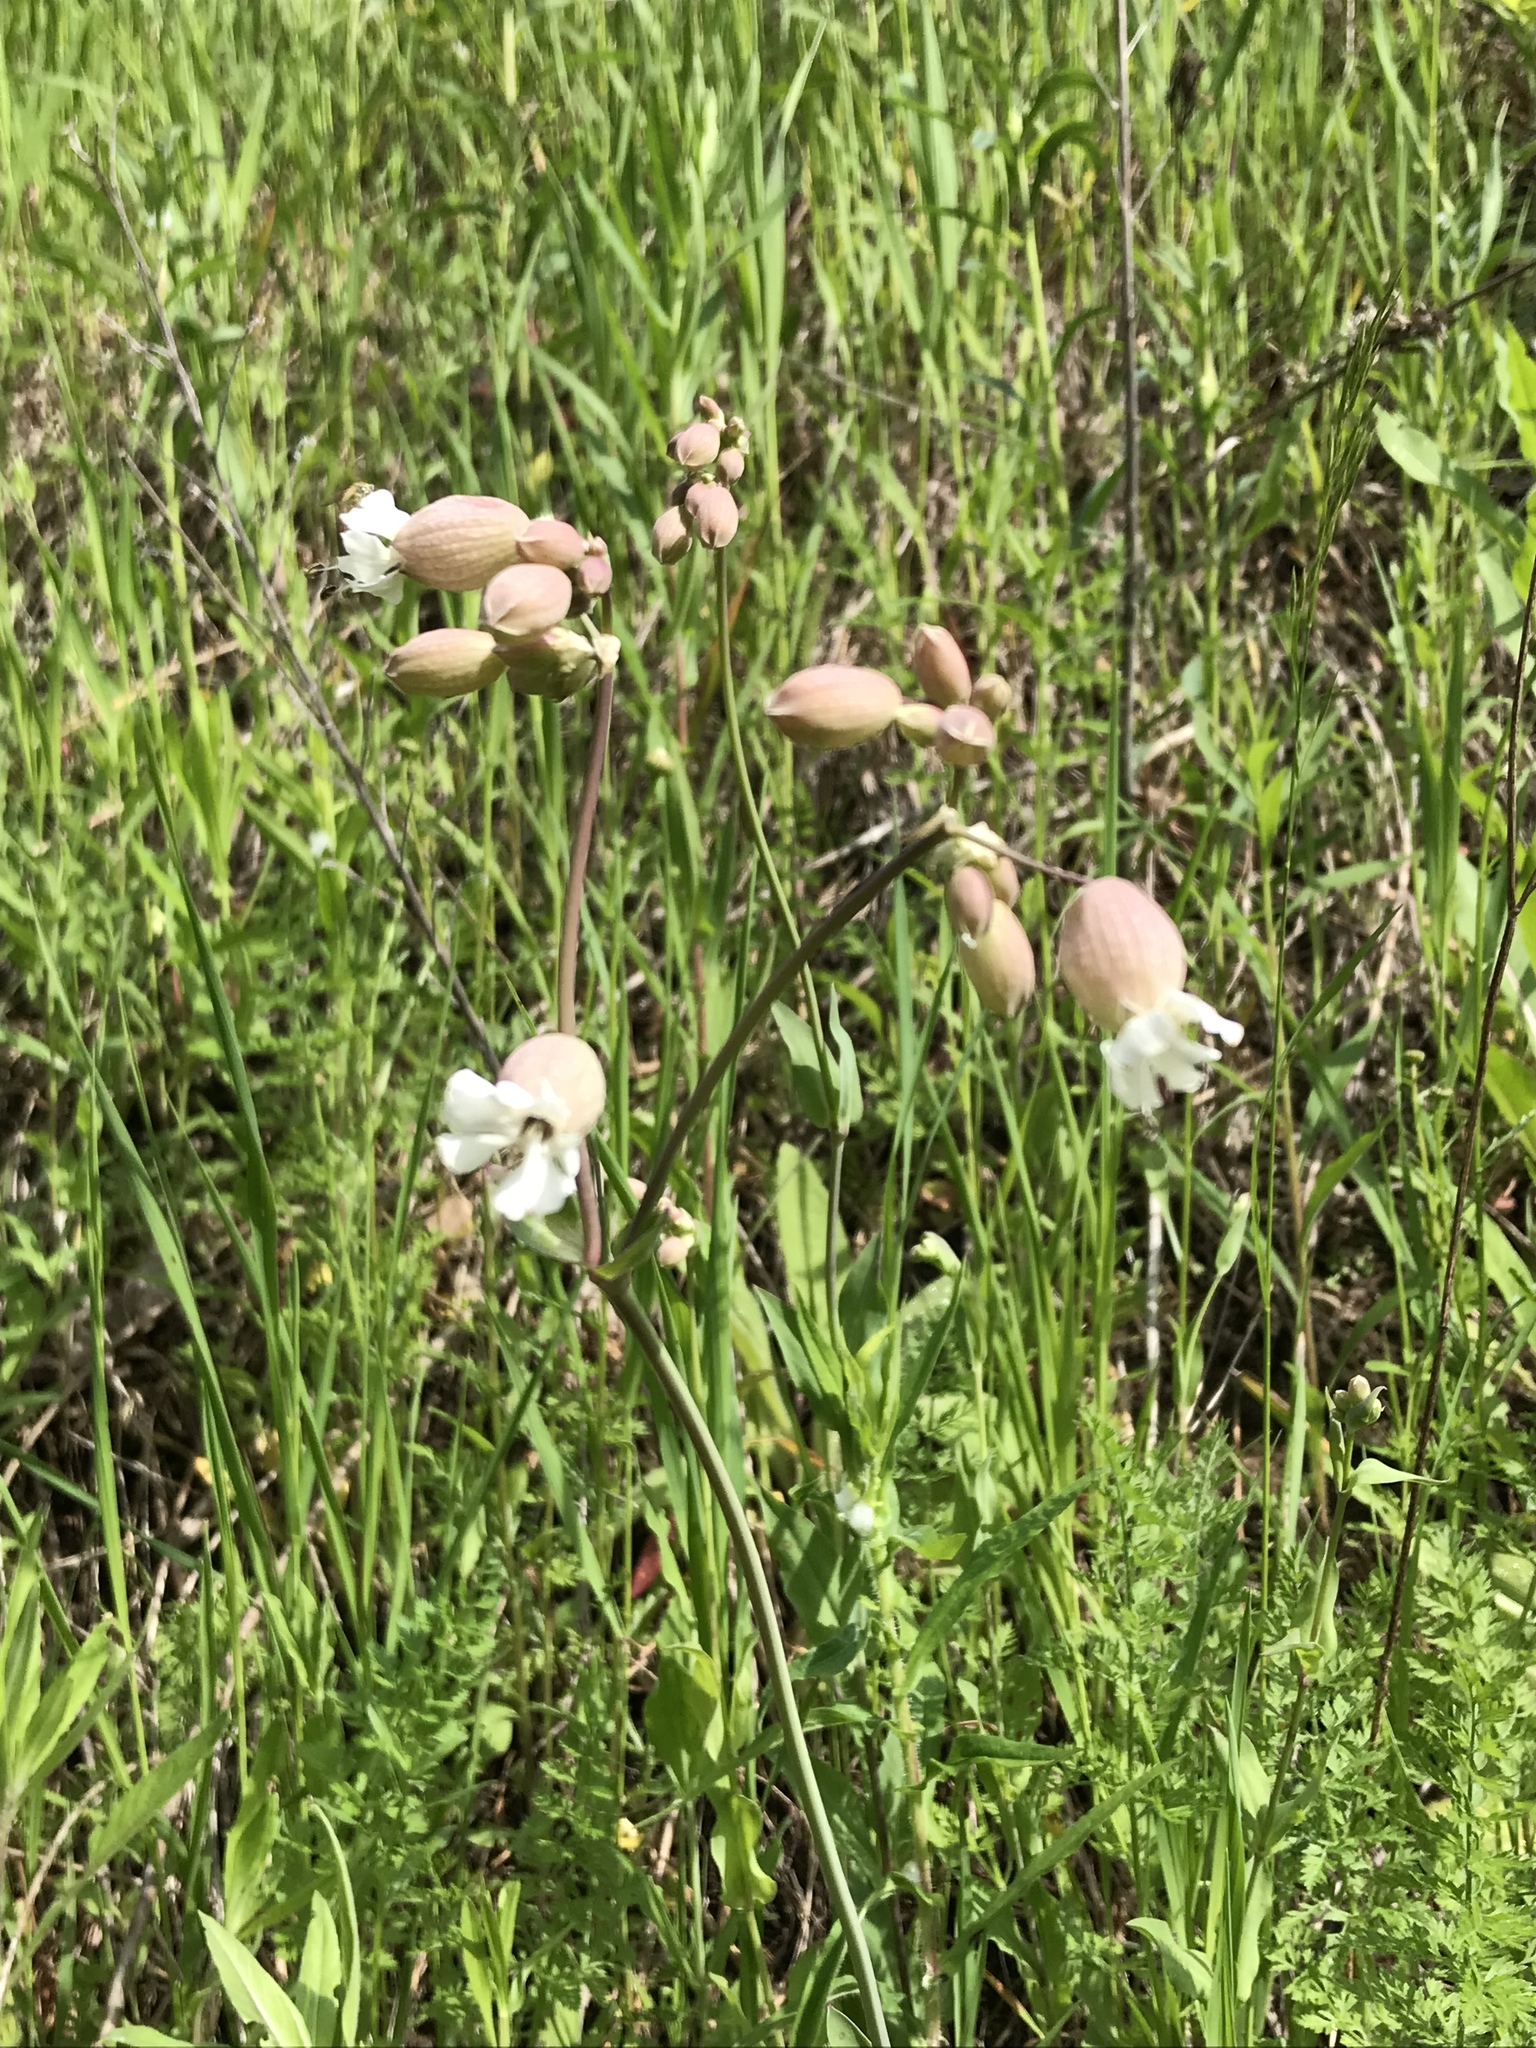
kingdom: Plantae
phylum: Tracheophyta
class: Magnoliopsida
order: Caryophyllales
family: Caryophyllaceae
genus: Silene
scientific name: Silene vulgaris
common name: Bladder campion
